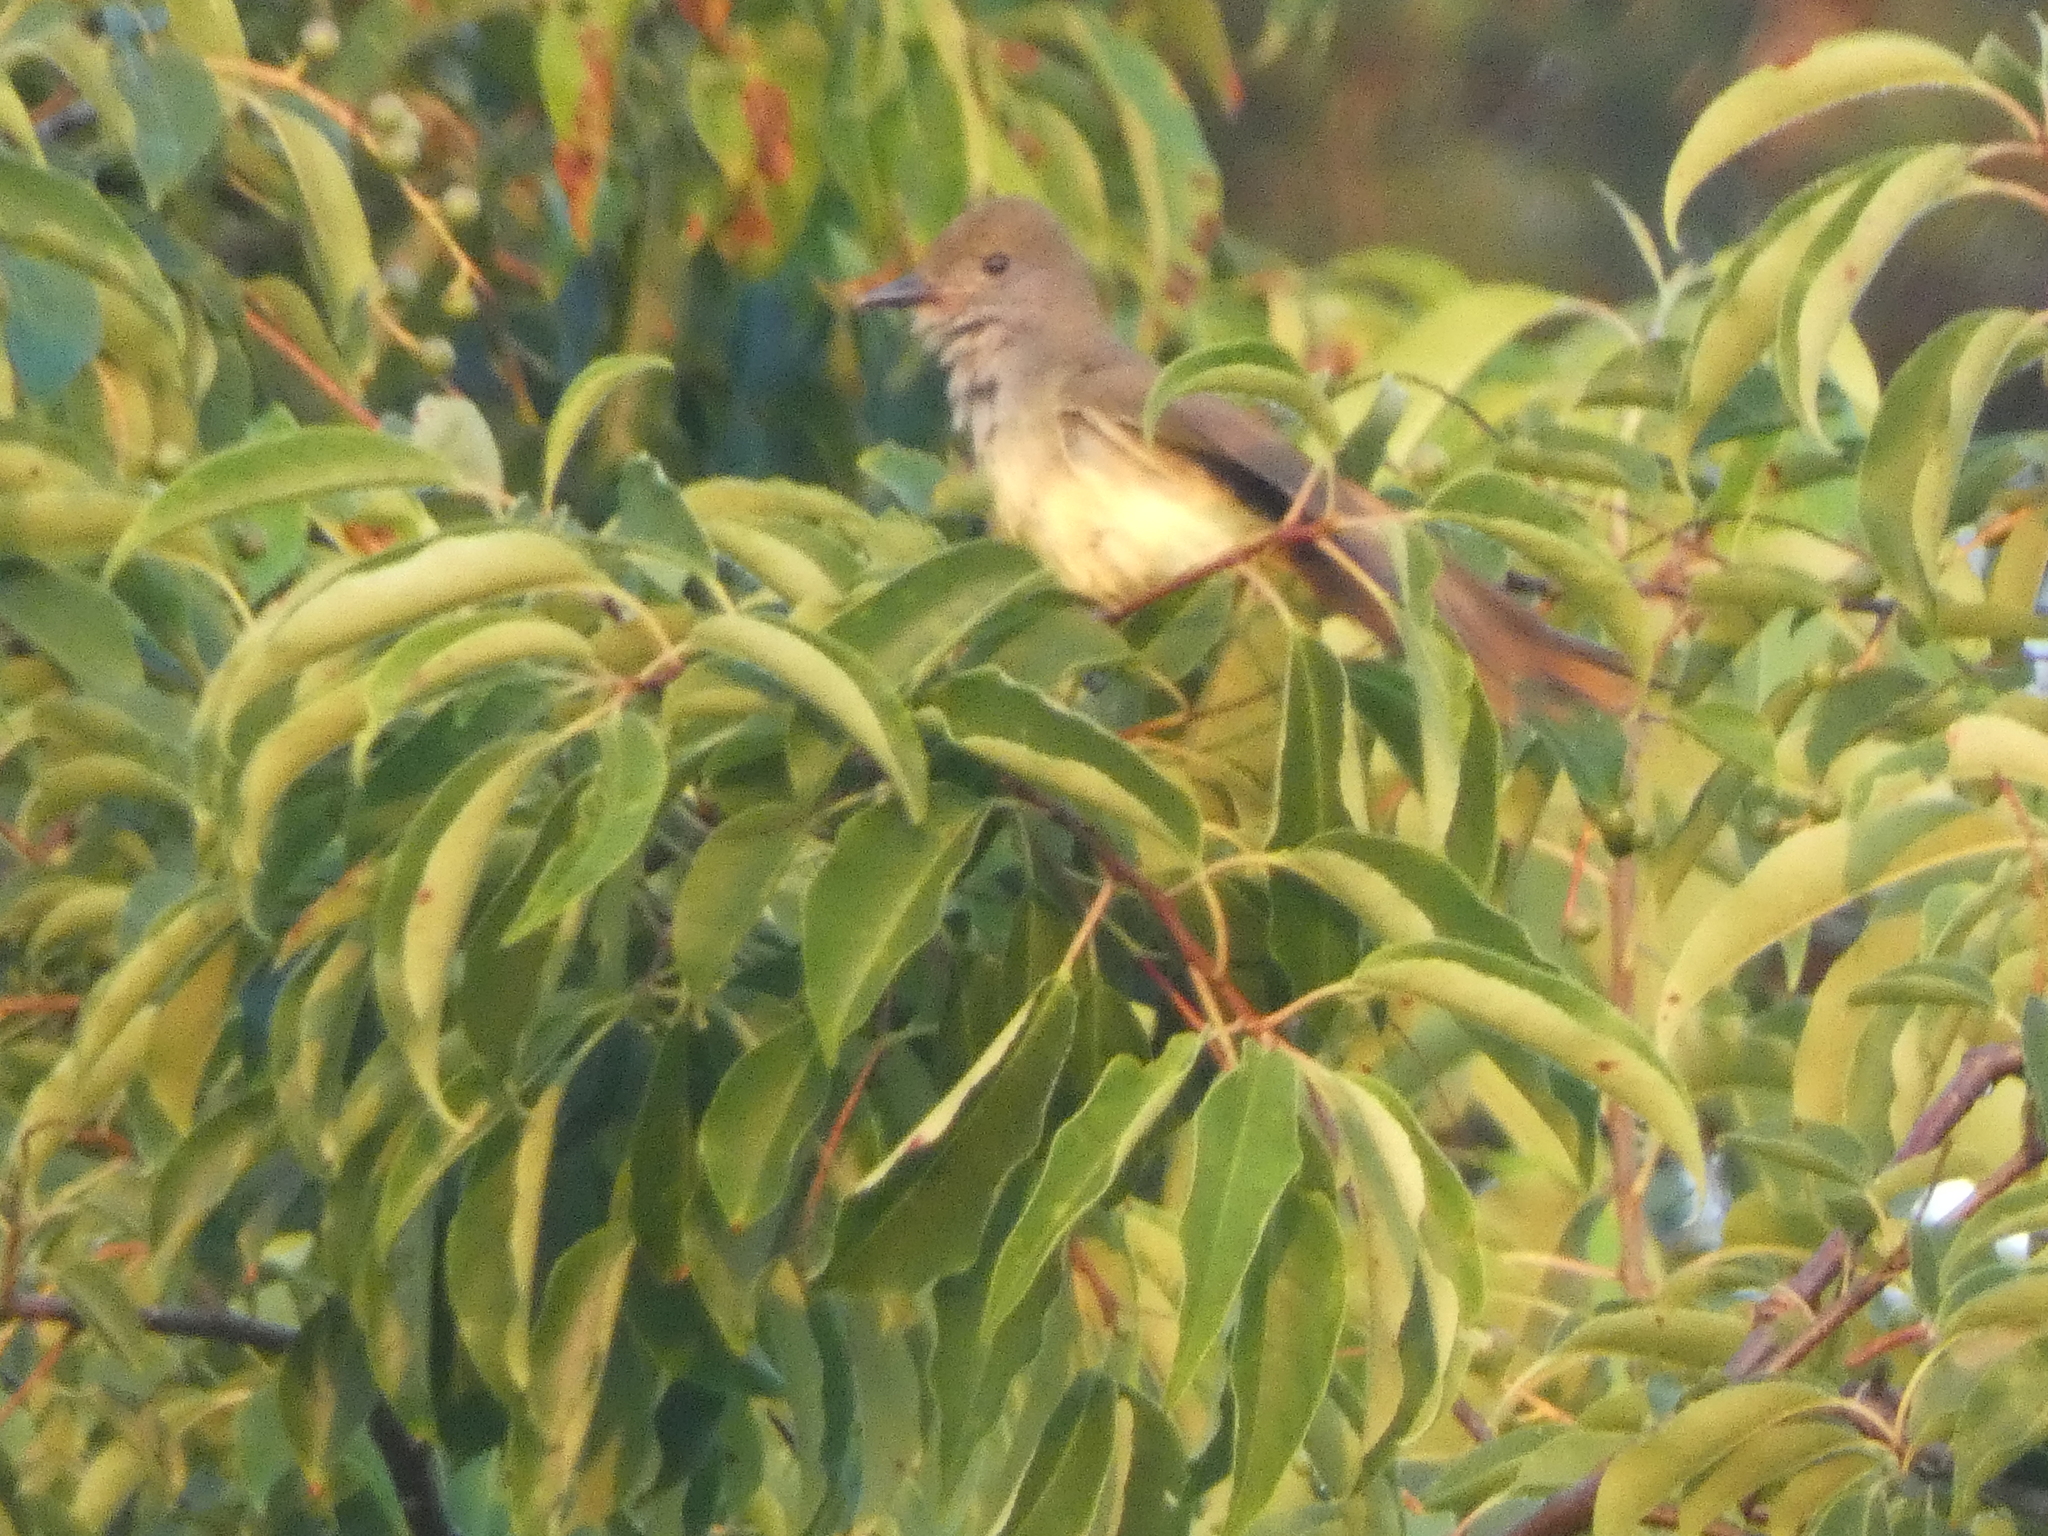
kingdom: Animalia
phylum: Chordata
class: Aves
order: Passeriformes
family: Tyrannidae
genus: Myiarchus
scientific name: Myiarchus crinitus
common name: Great crested flycatcher
